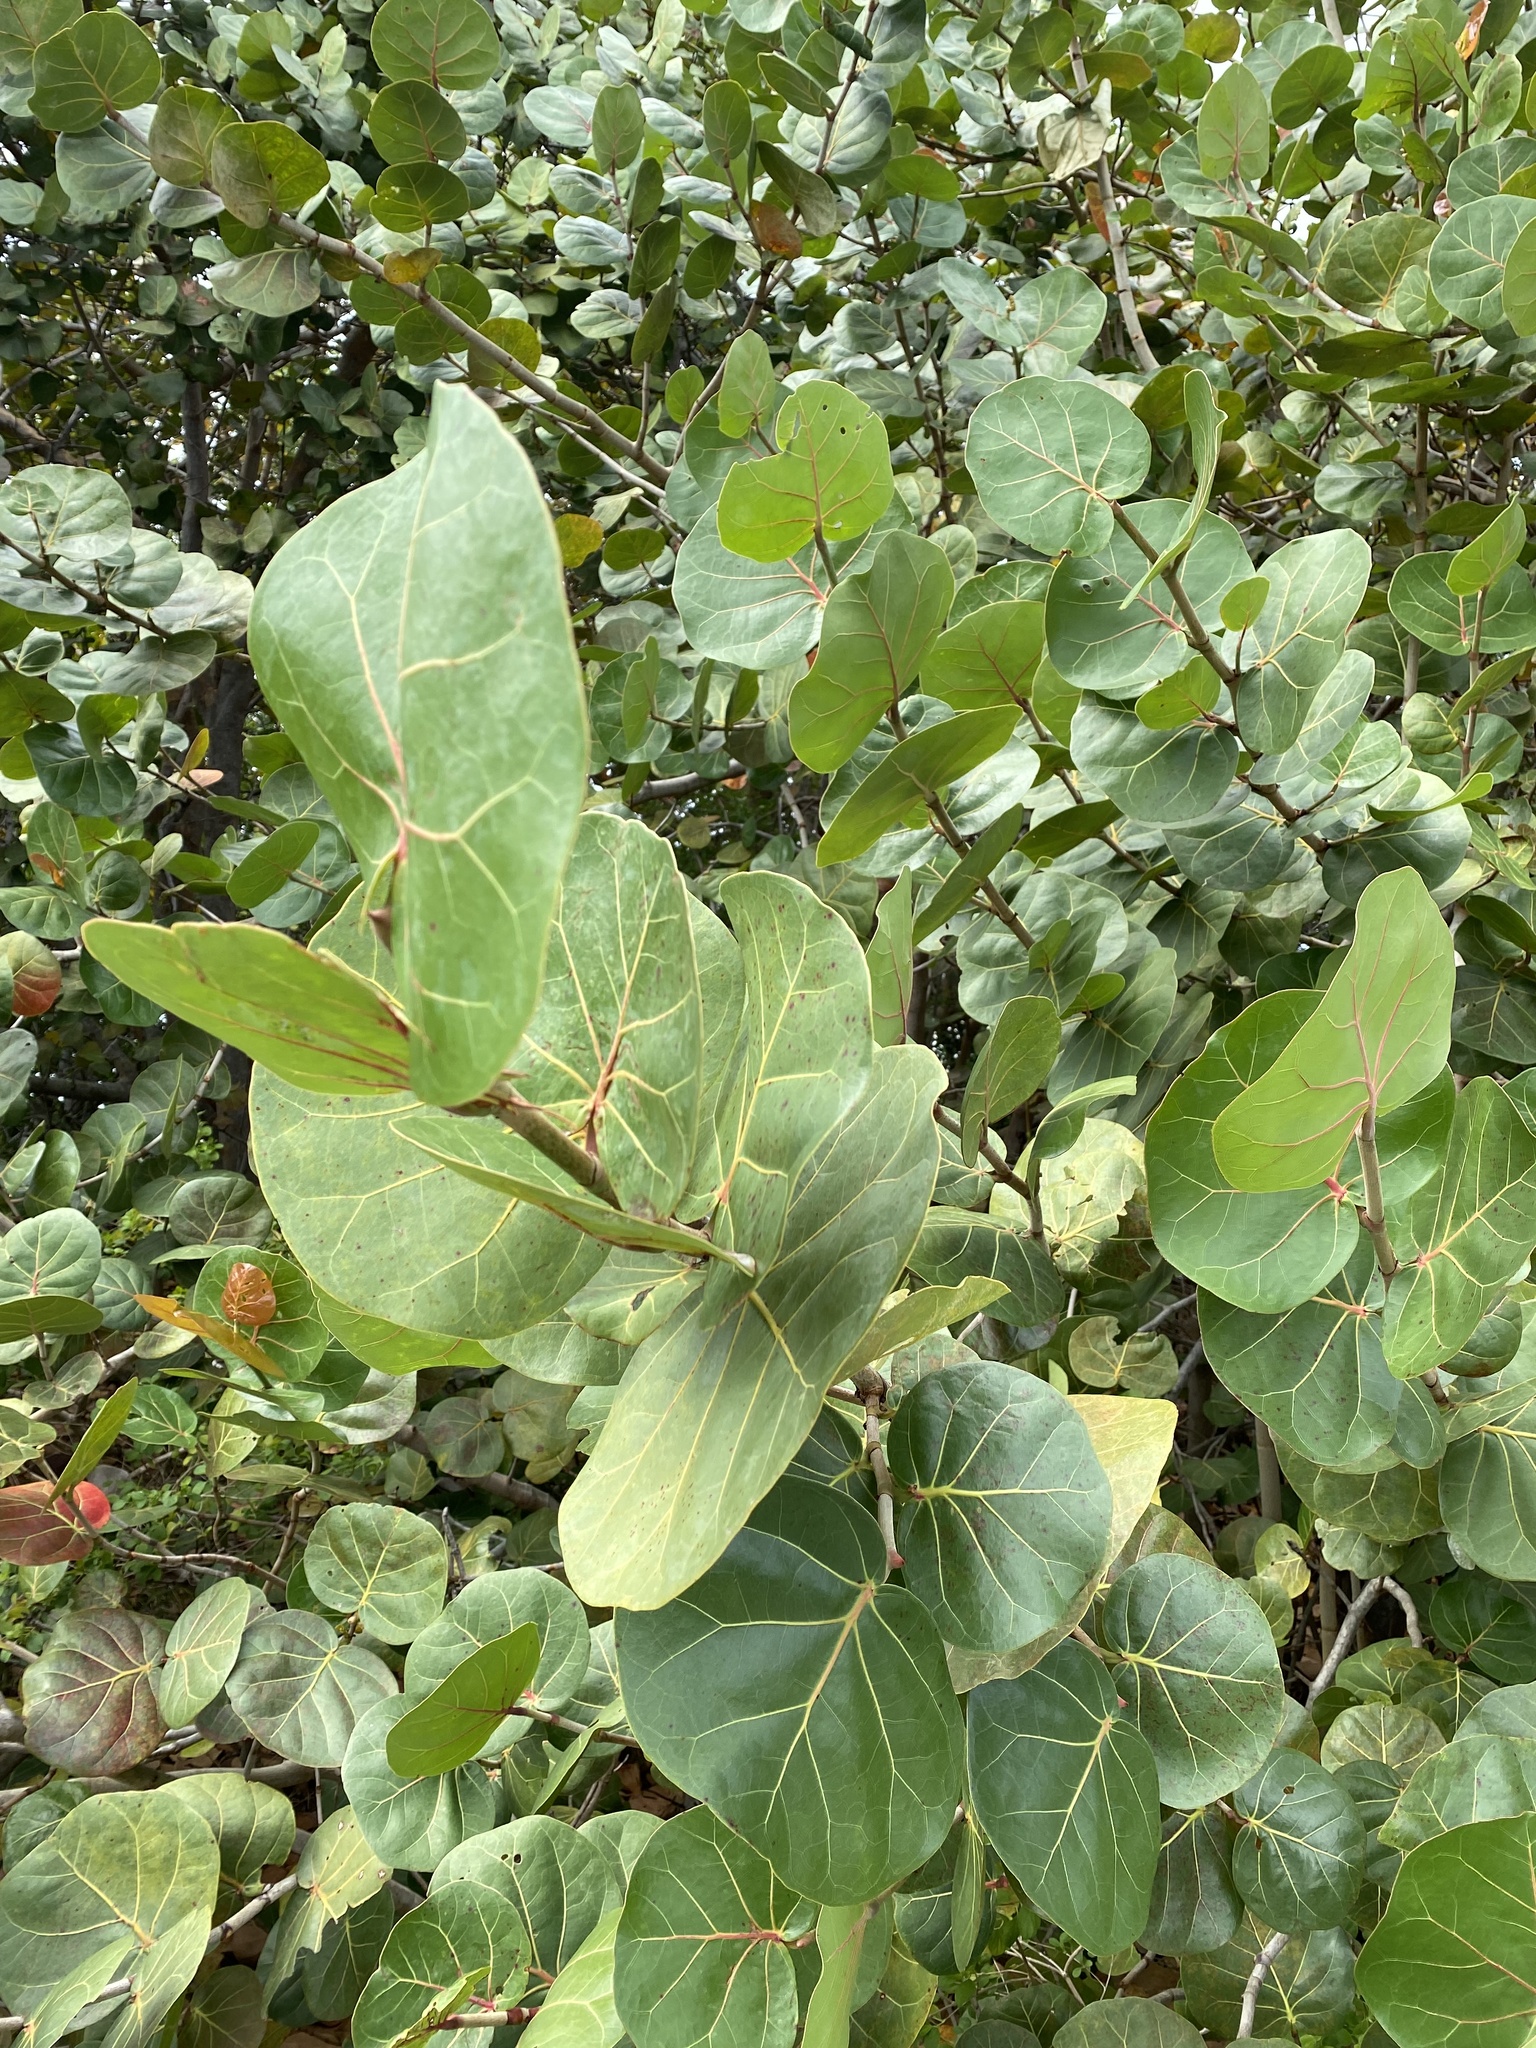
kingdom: Plantae
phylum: Tracheophyta
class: Magnoliopsida
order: Caryophyllales
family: Polygonaceae
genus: Coccoloba
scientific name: Coccoloba uvifera
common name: Seagrape
